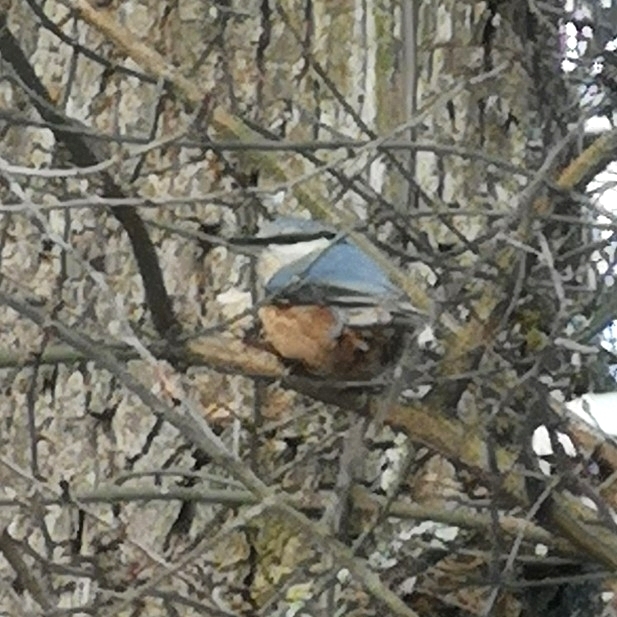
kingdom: Animalia
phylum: Chordata
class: Aves
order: Passeriformes
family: Sittidae
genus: Sitta
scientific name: Sitta europaea
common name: Eurasian nuthatch
